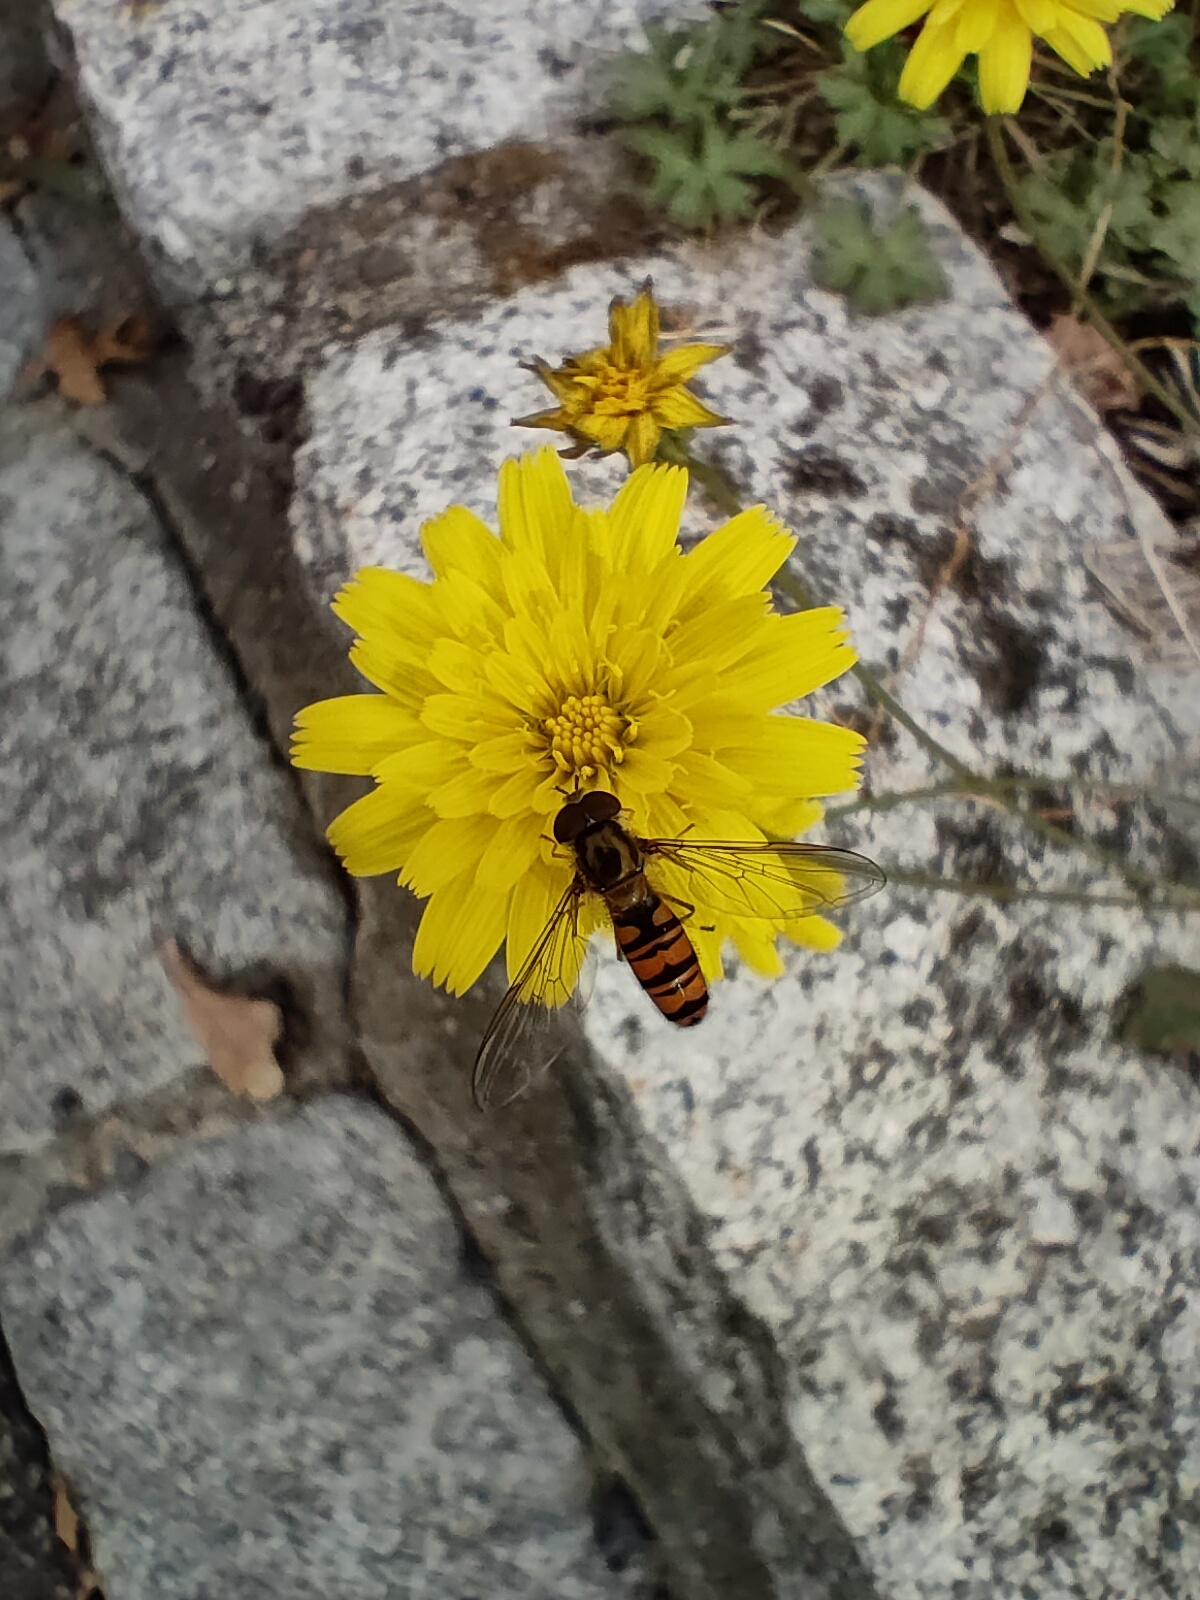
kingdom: Animalia
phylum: Arthropoda
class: Insecta
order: Diptera
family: Syrphidae
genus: Episyrphus
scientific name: Episyrphus balteatus
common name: Marmalade hoverfly
